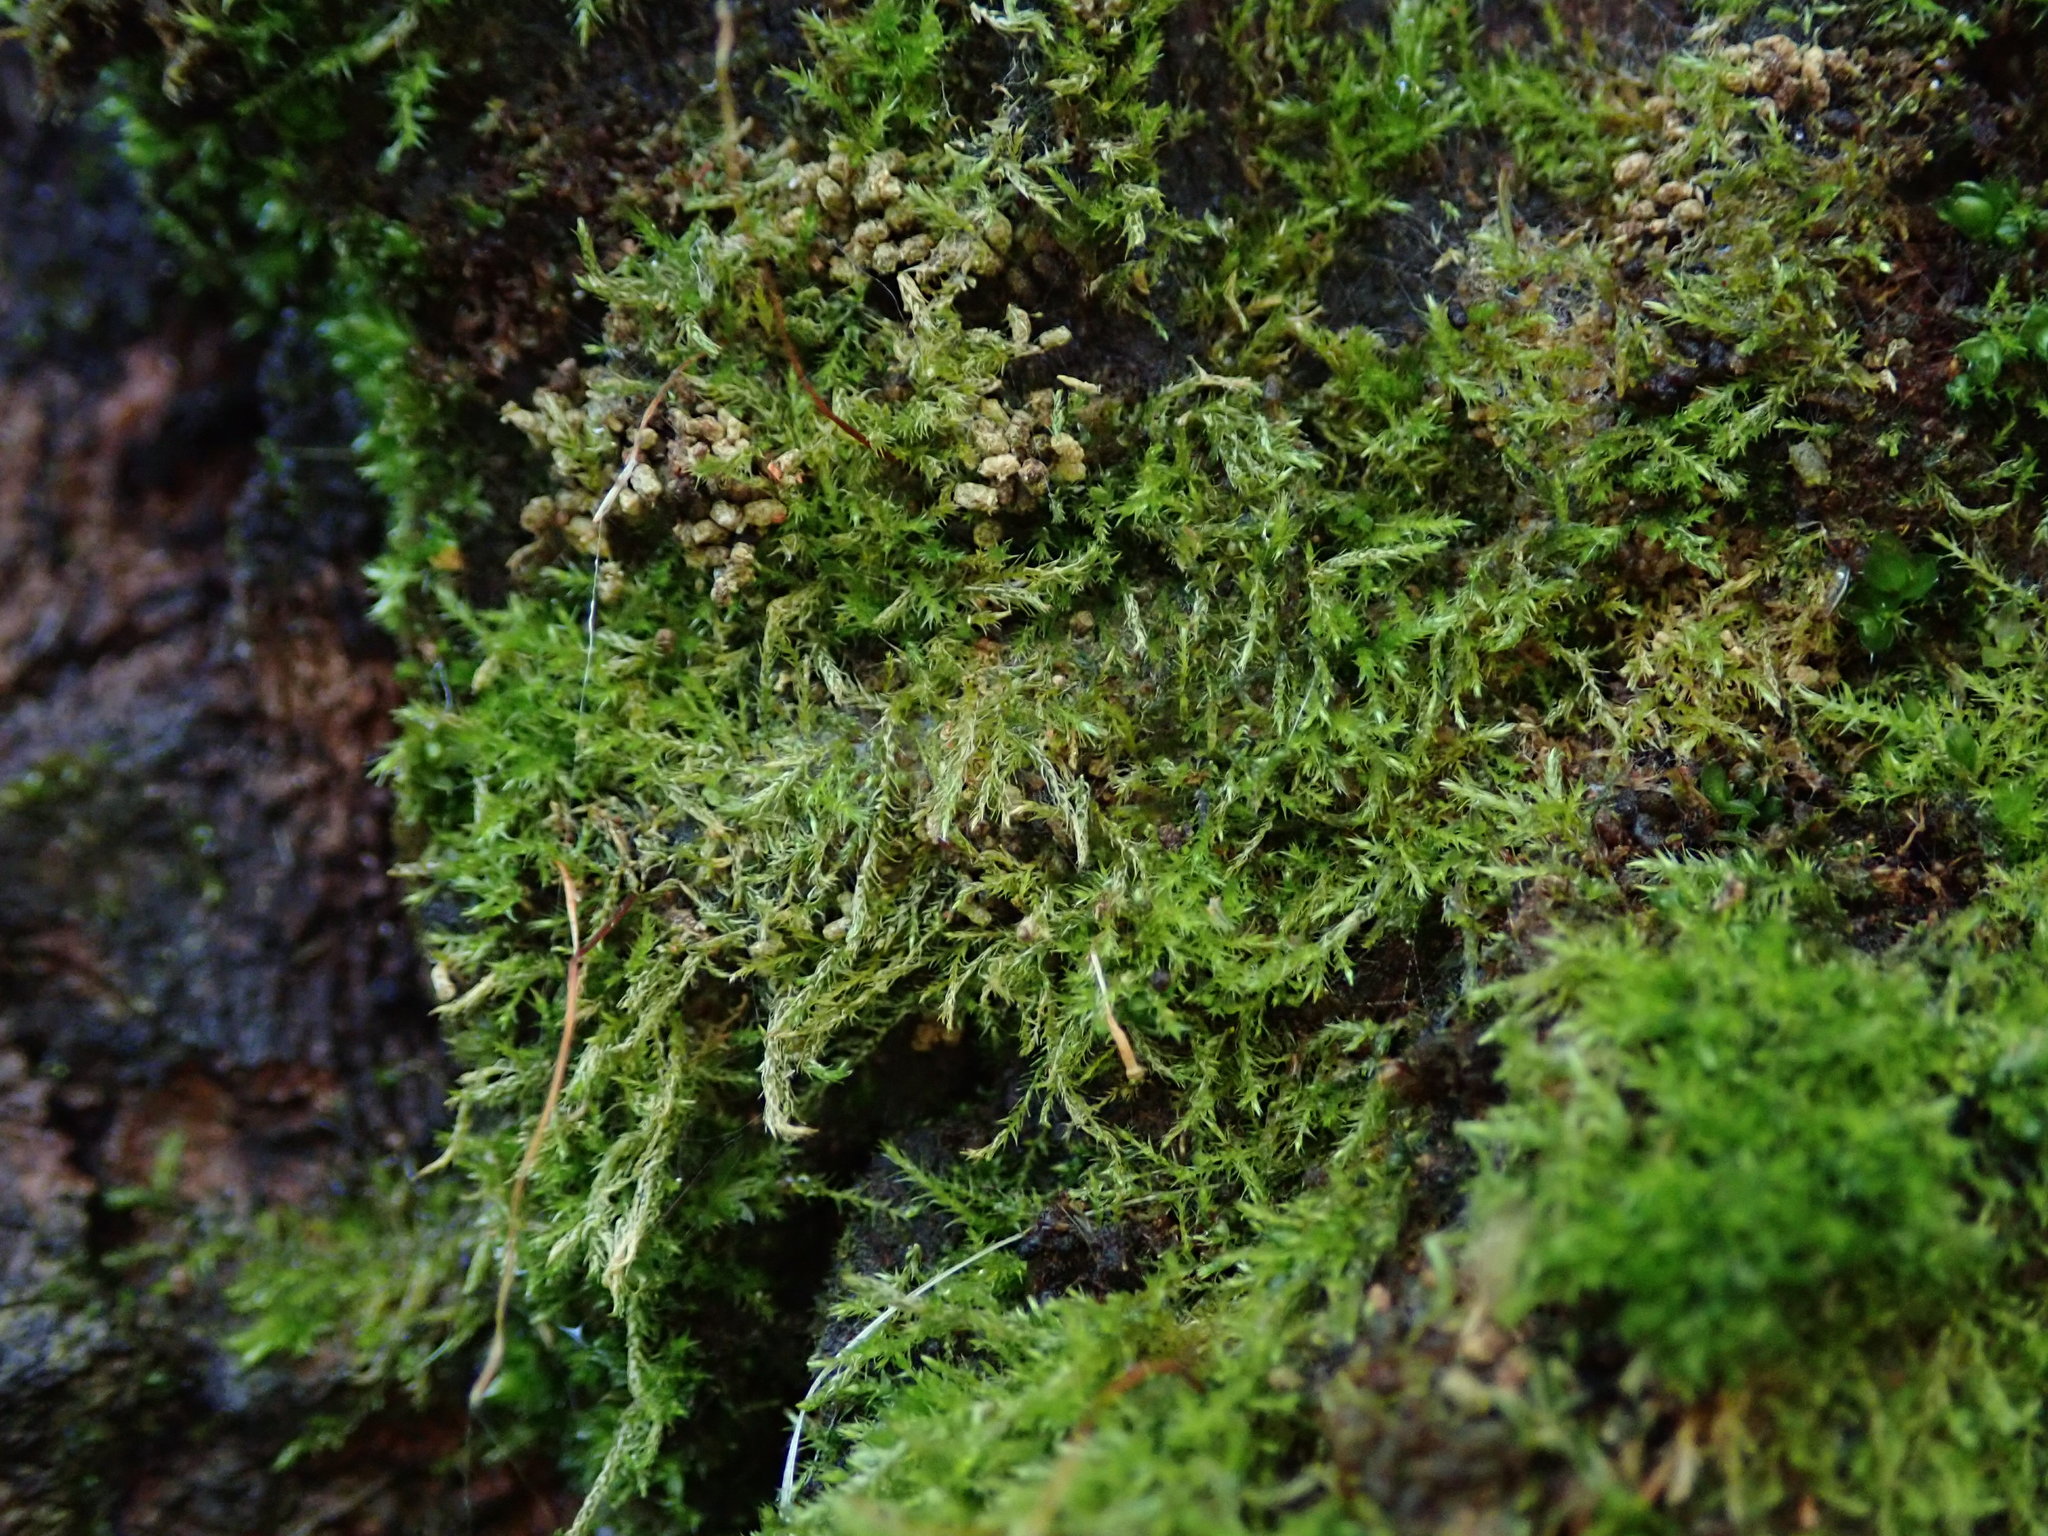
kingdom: Plantae
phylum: Bryophyta
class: Bryopsida
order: Hypnales
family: Amblystegiaceae
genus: Amblystegium
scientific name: Amblystegium serpens
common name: Jurkatzka's feather moss
